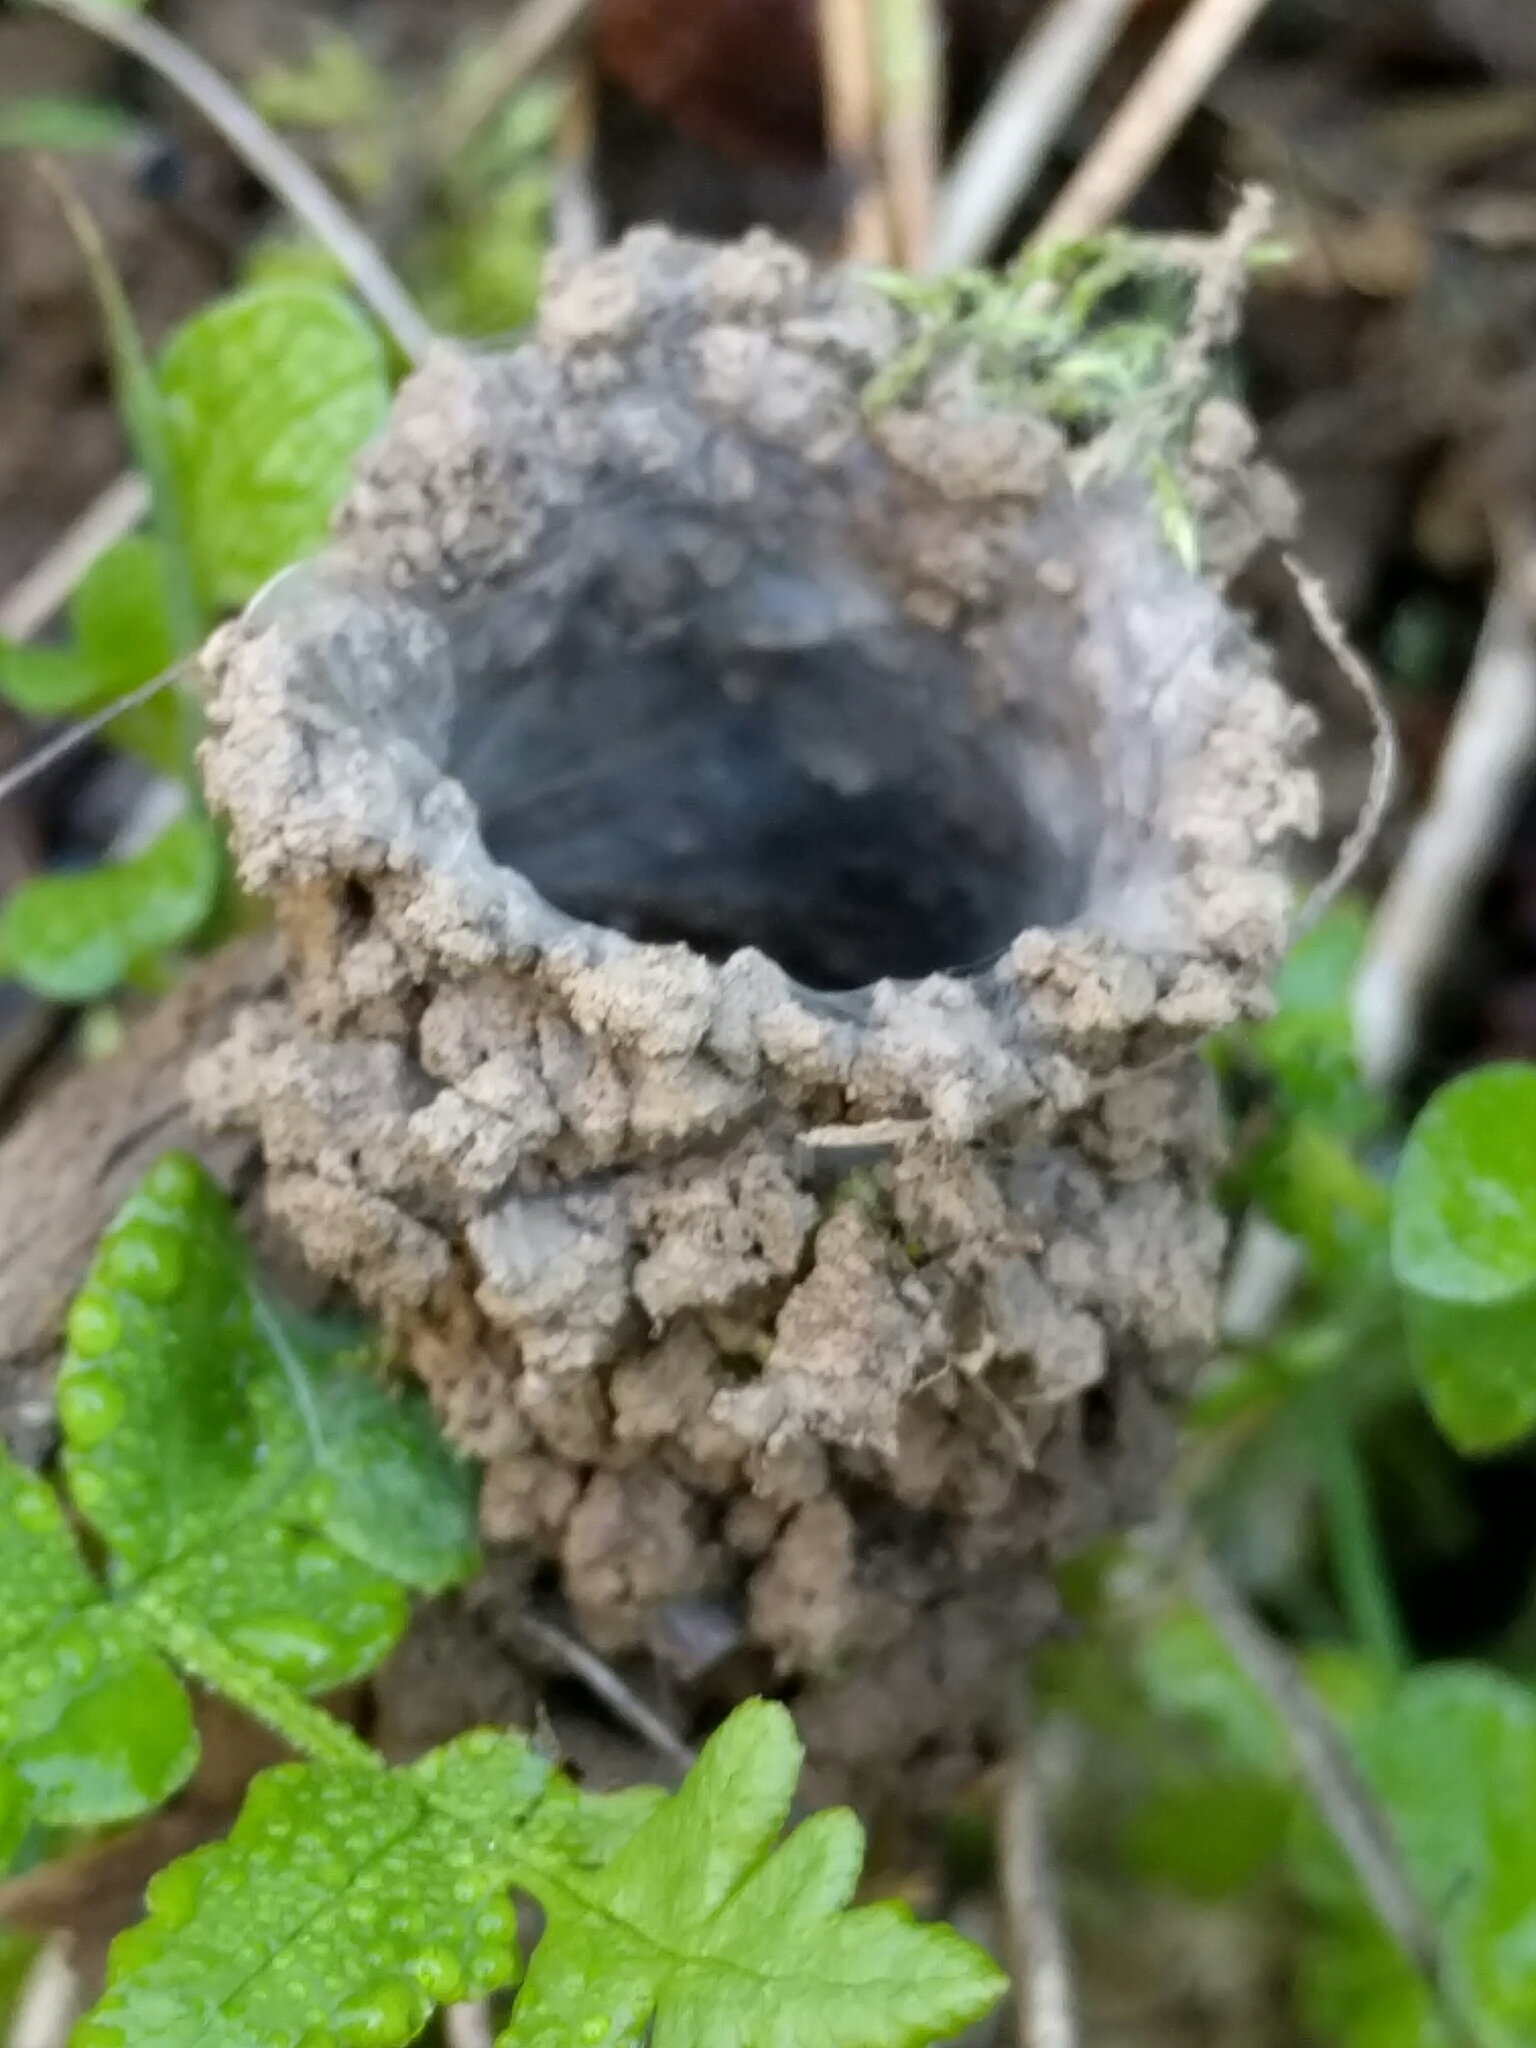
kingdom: Animalia
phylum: Arthropoda
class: Arachnida
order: Araneae
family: Antrodiaetidae
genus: Atypoides
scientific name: Atypoides riversi
